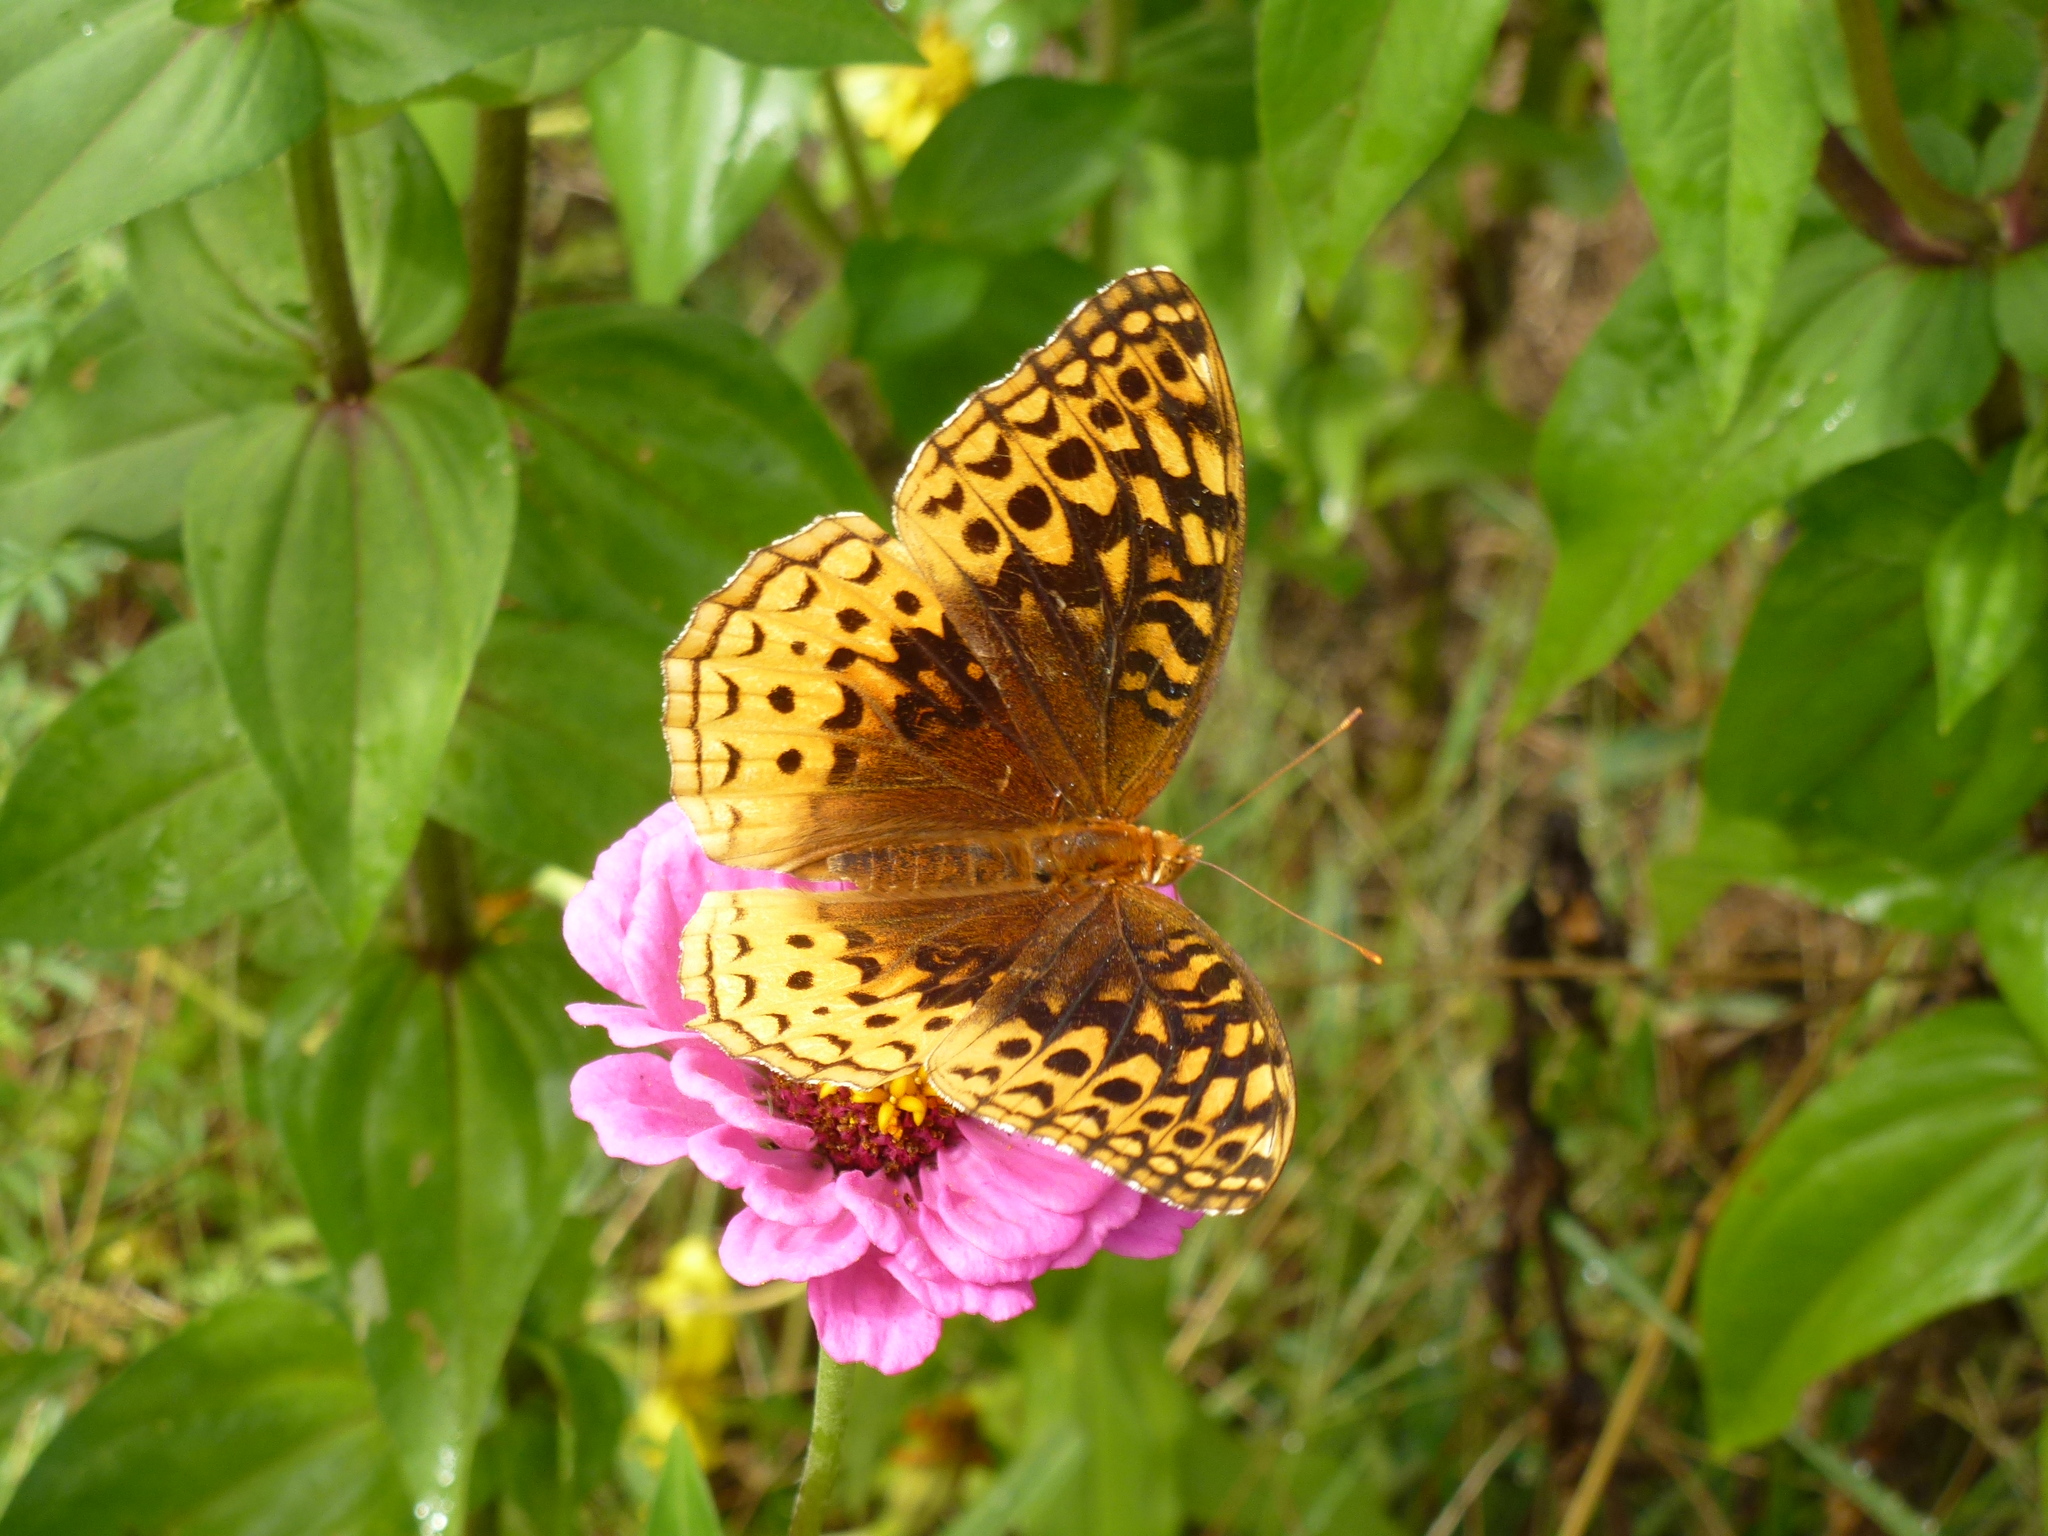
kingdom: Animalia
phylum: Arthropoda
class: Insecta
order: Lepidoptera
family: Nymphalidae
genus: Speyeria
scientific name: Speyeria cybele
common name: Great spangled fritillary
